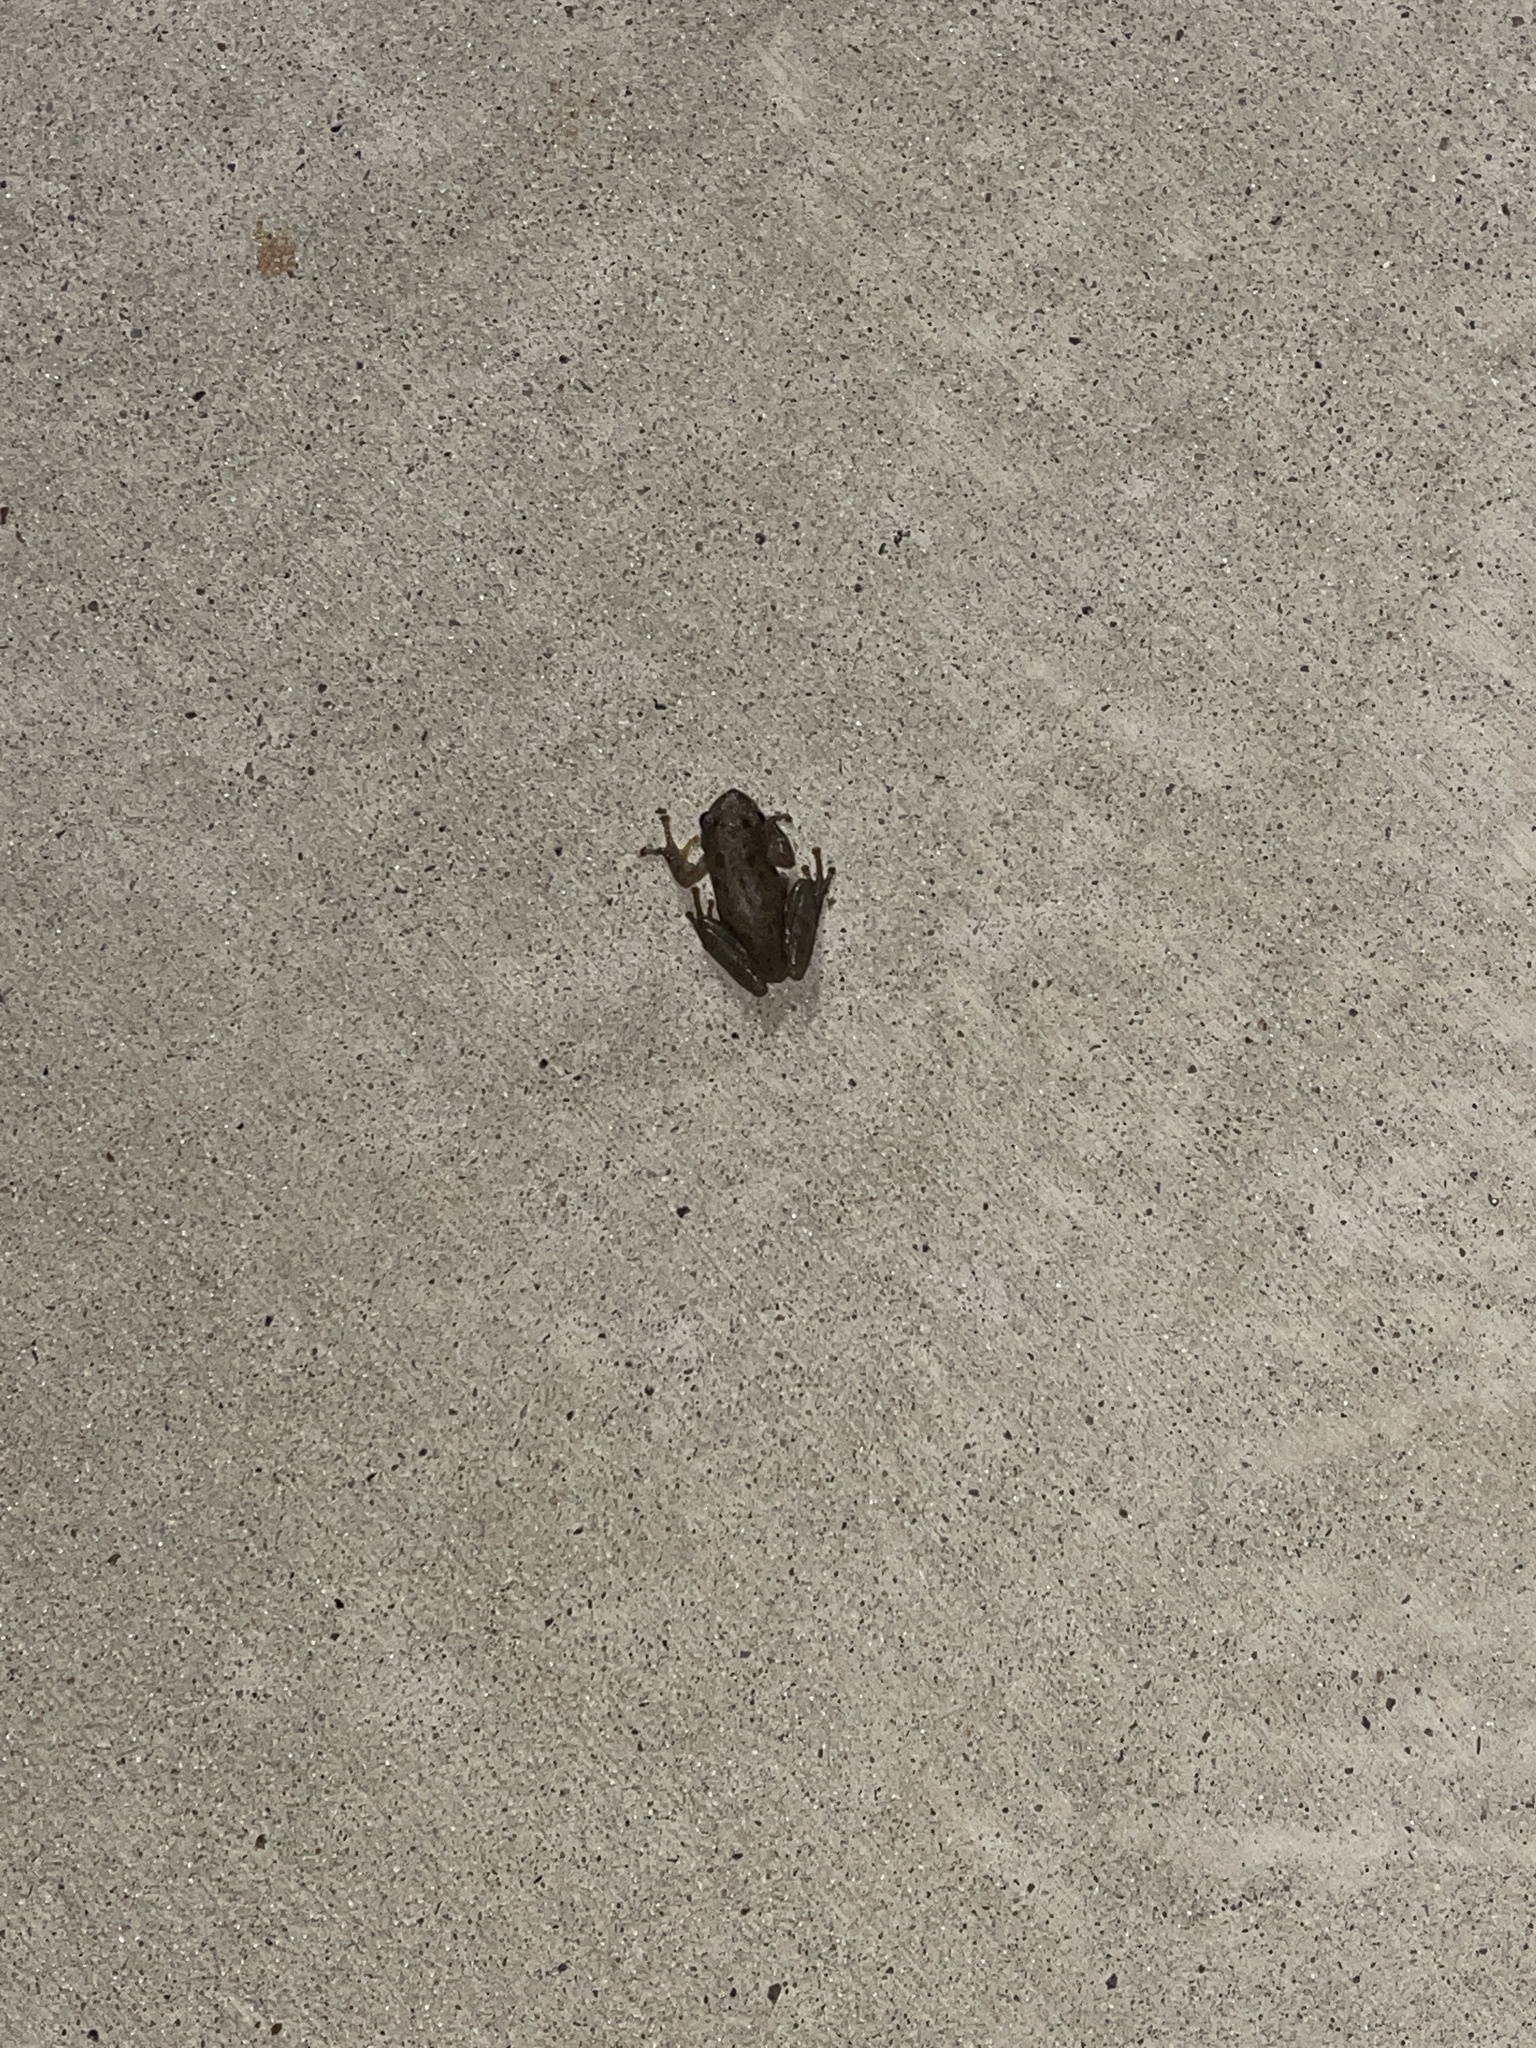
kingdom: Animalia
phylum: Chordata
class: Amphibia
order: Anura
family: Hylidae
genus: Dryophytes
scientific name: Dryophytes squirellus
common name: Squirrel treefrog
